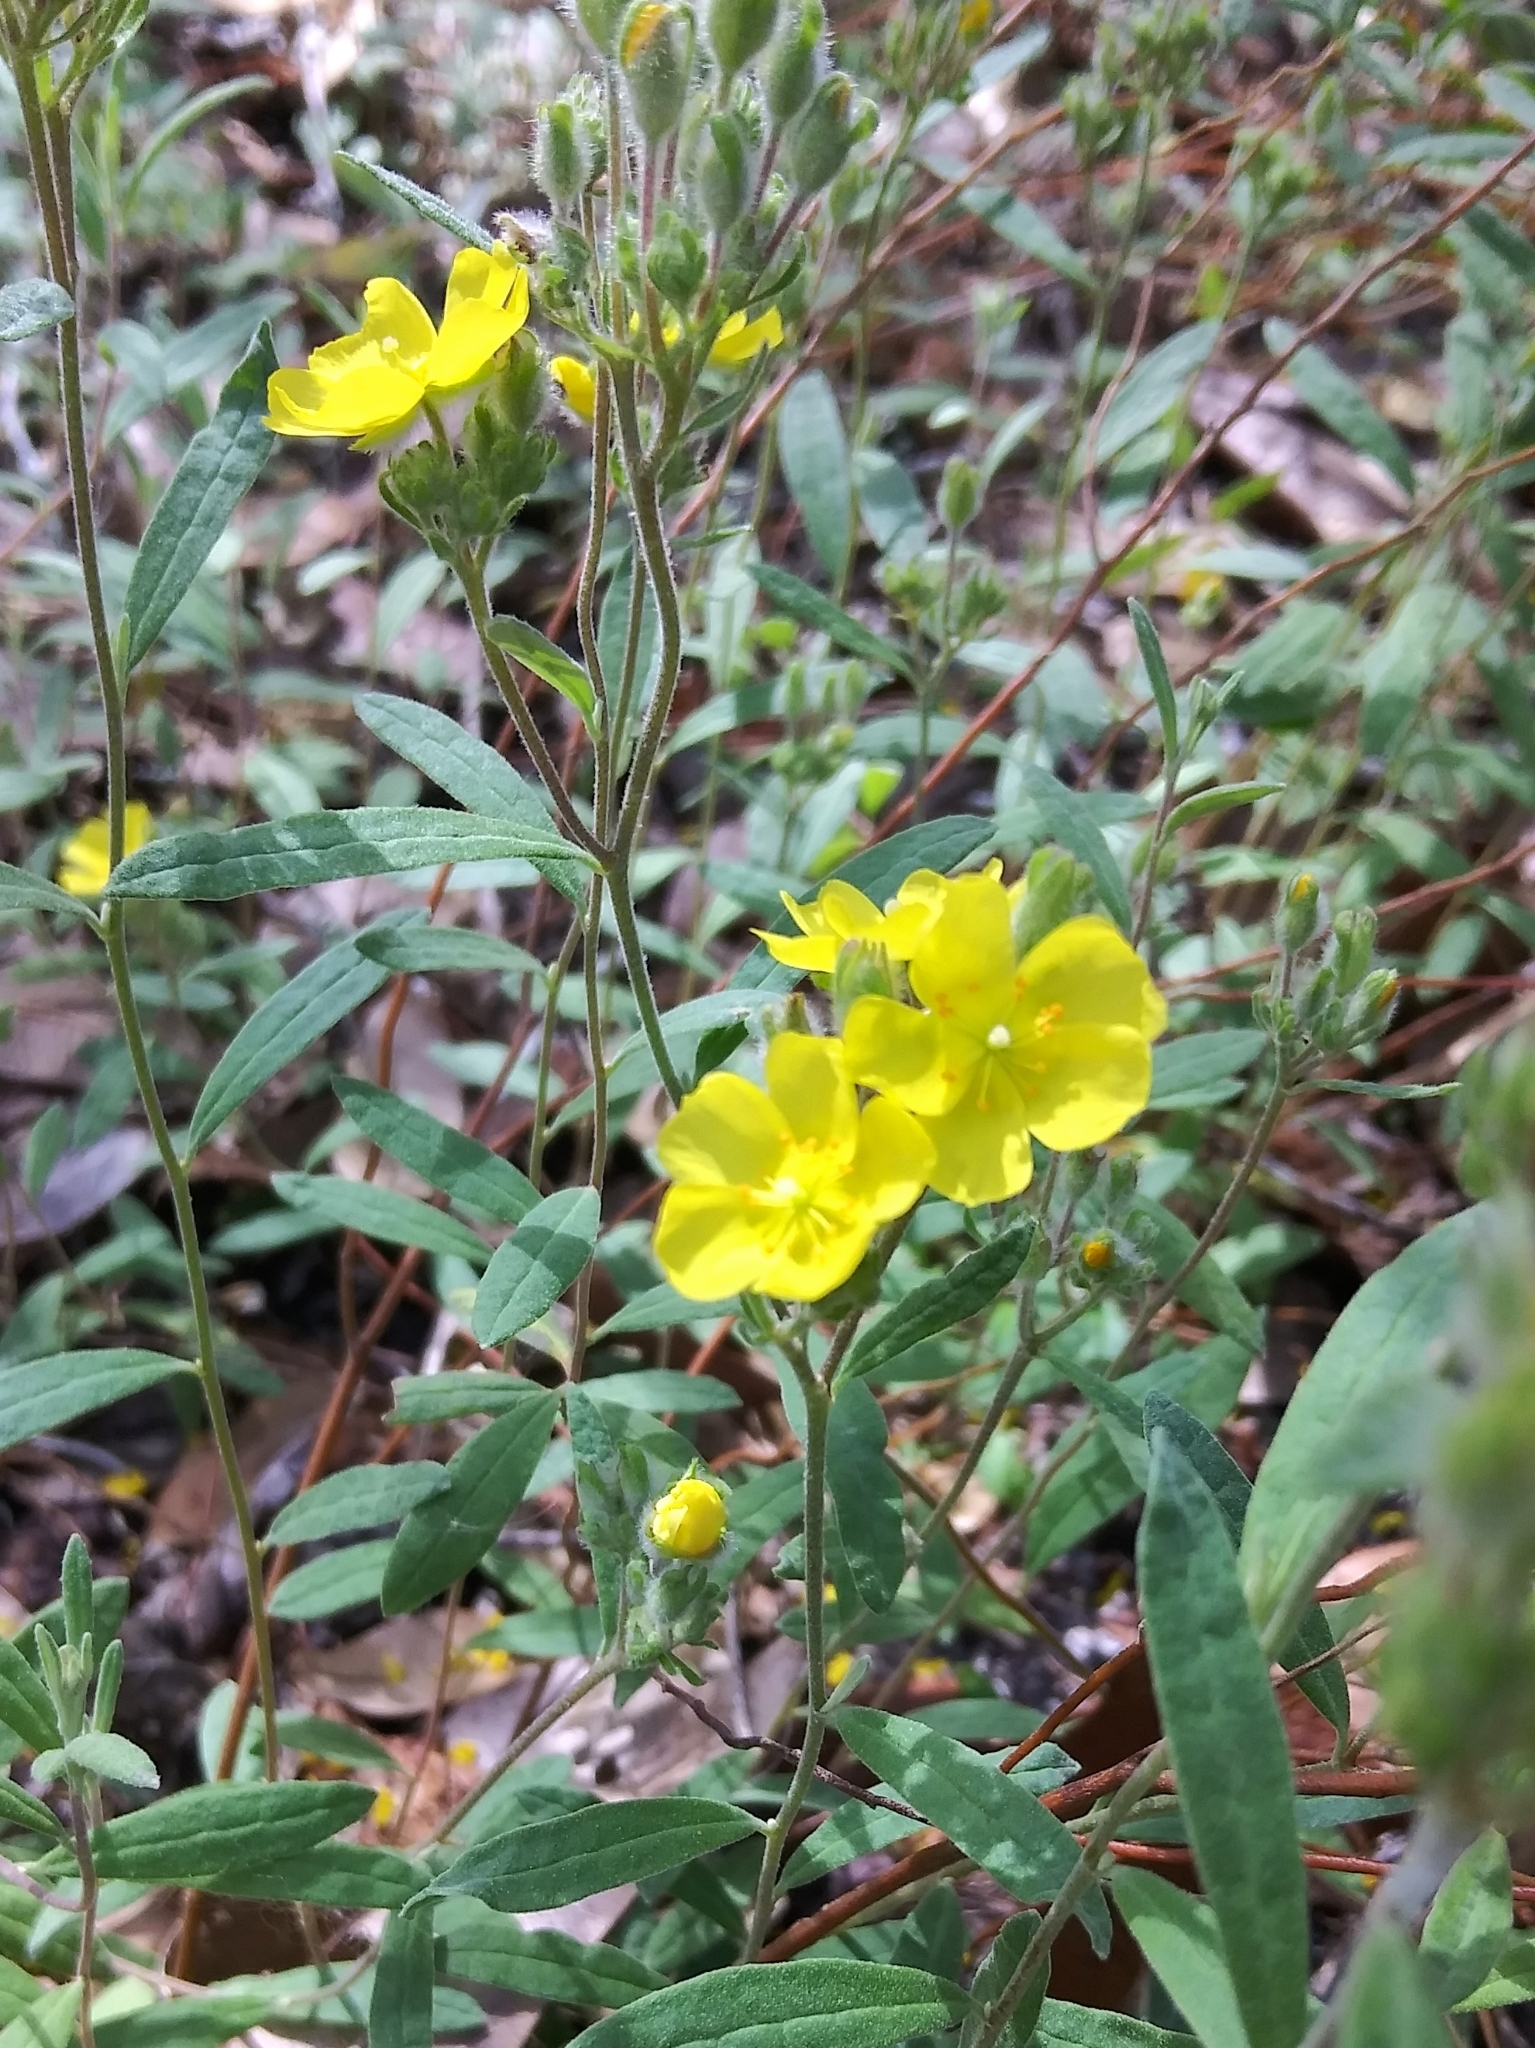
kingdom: Plantae
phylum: Tracheophyta
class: Magnoliopsida
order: Malvales
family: Cistaceae
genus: Crocanthemum
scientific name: Crocanthemum corymbosum
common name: Pinebarren sun-rose
